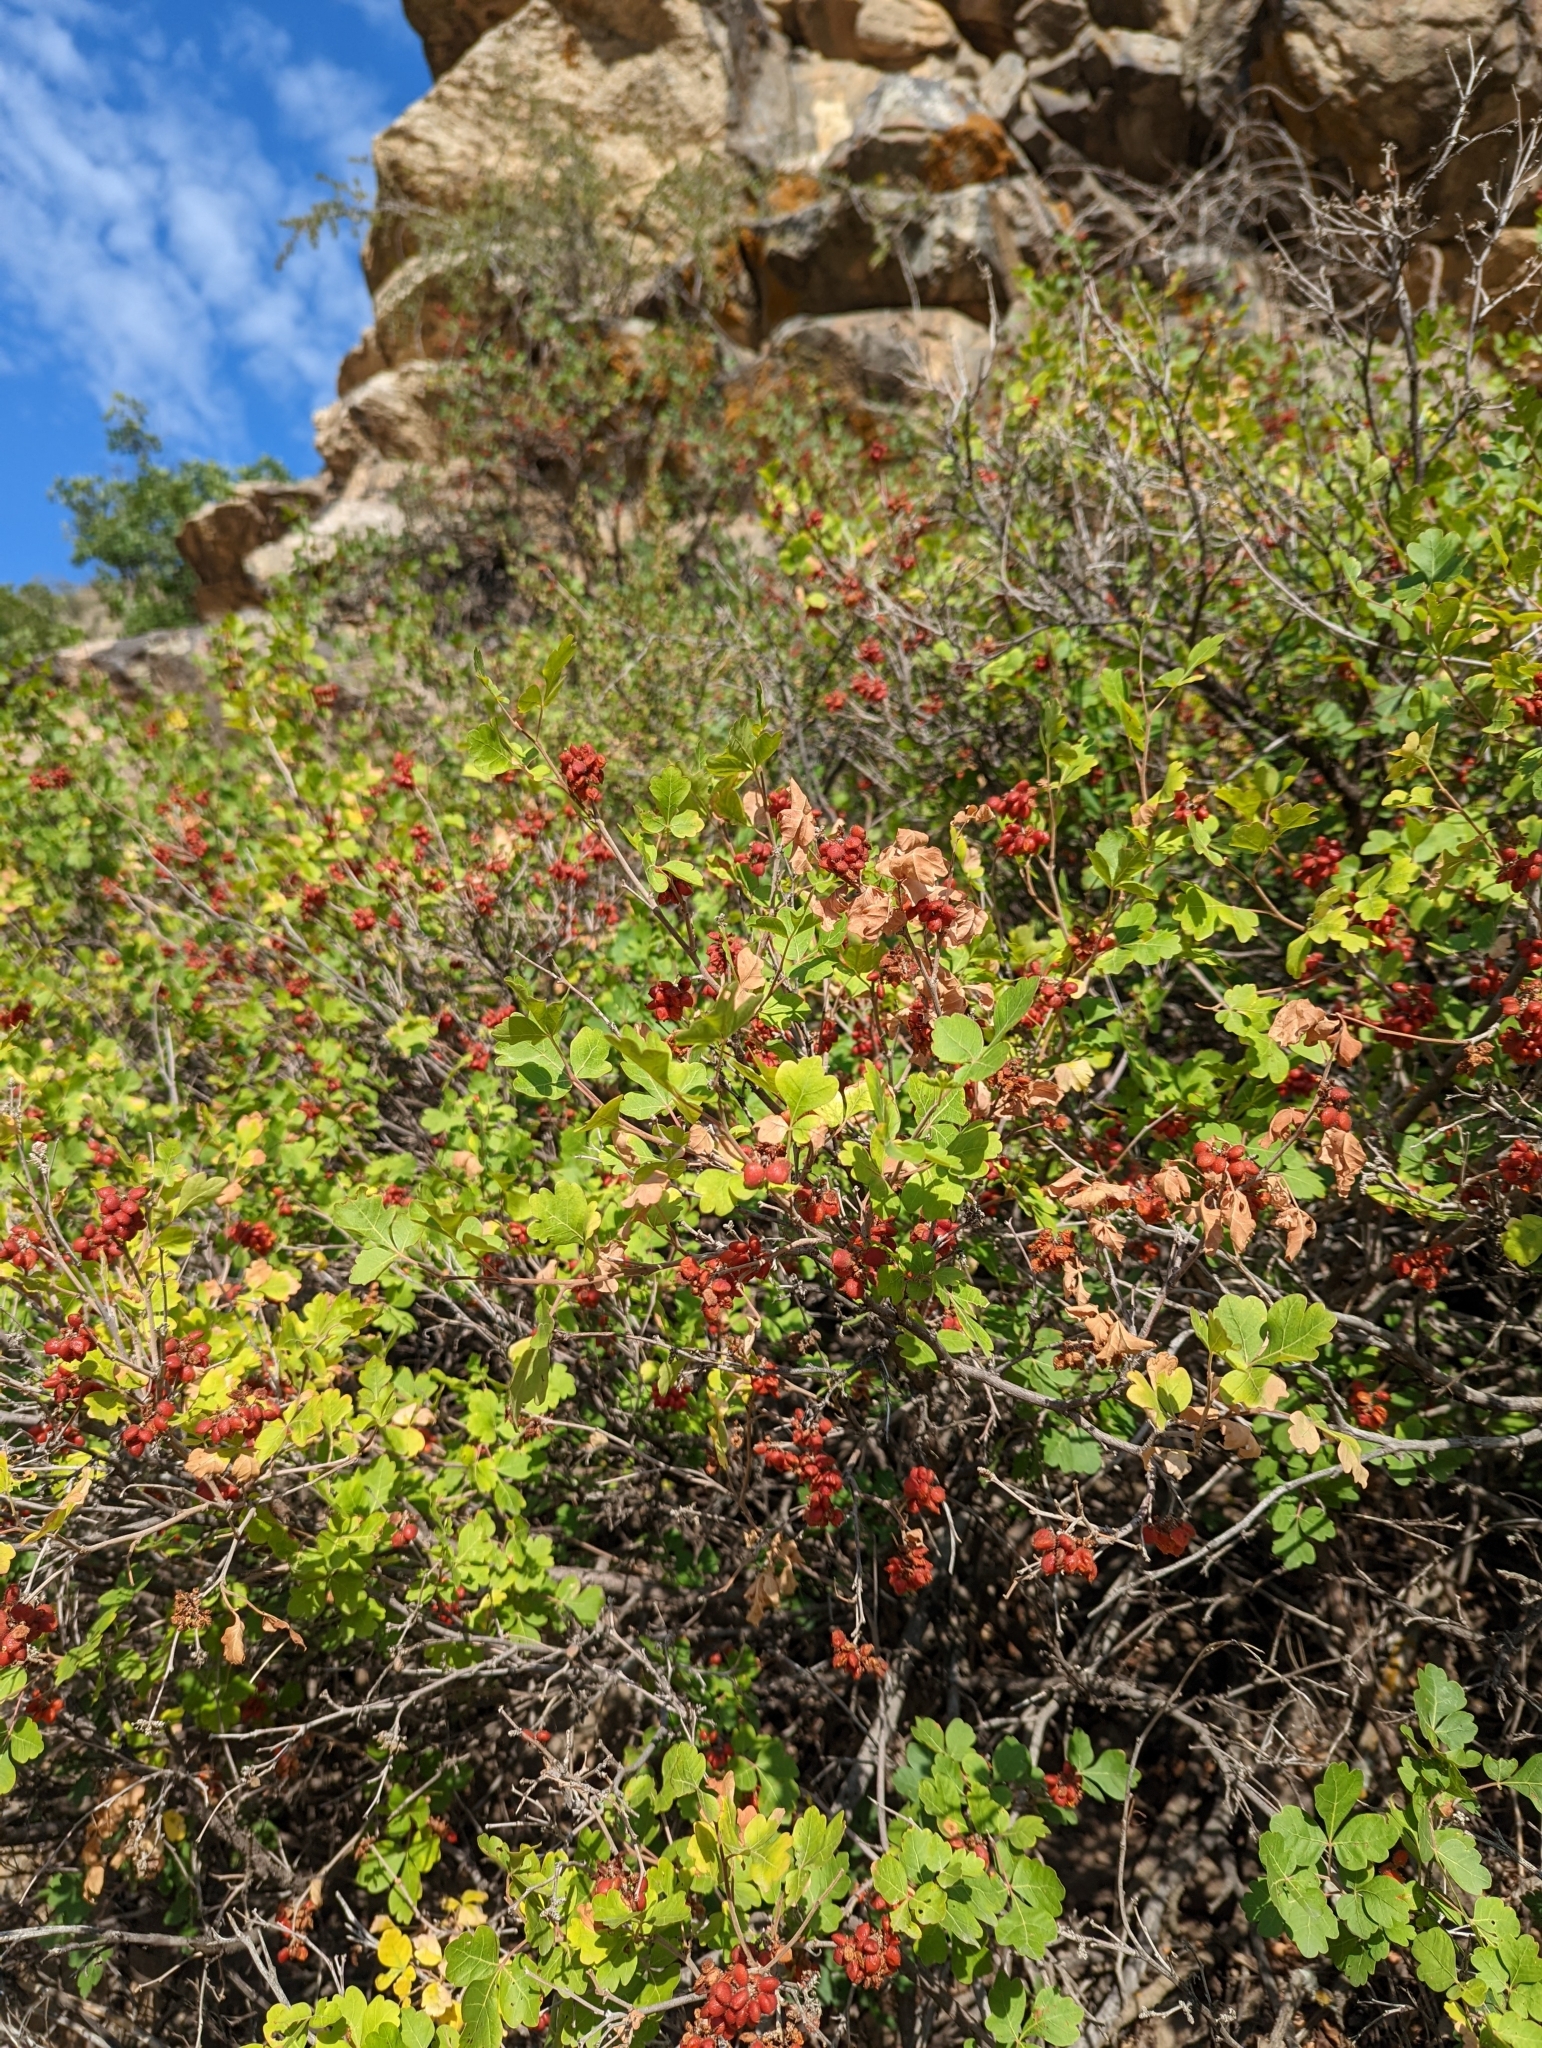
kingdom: Plantae
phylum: Tracheophyta
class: Magnoliopsida
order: Sapindales
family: Anacardiaceae
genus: Rhus
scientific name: Rhus trilobata
